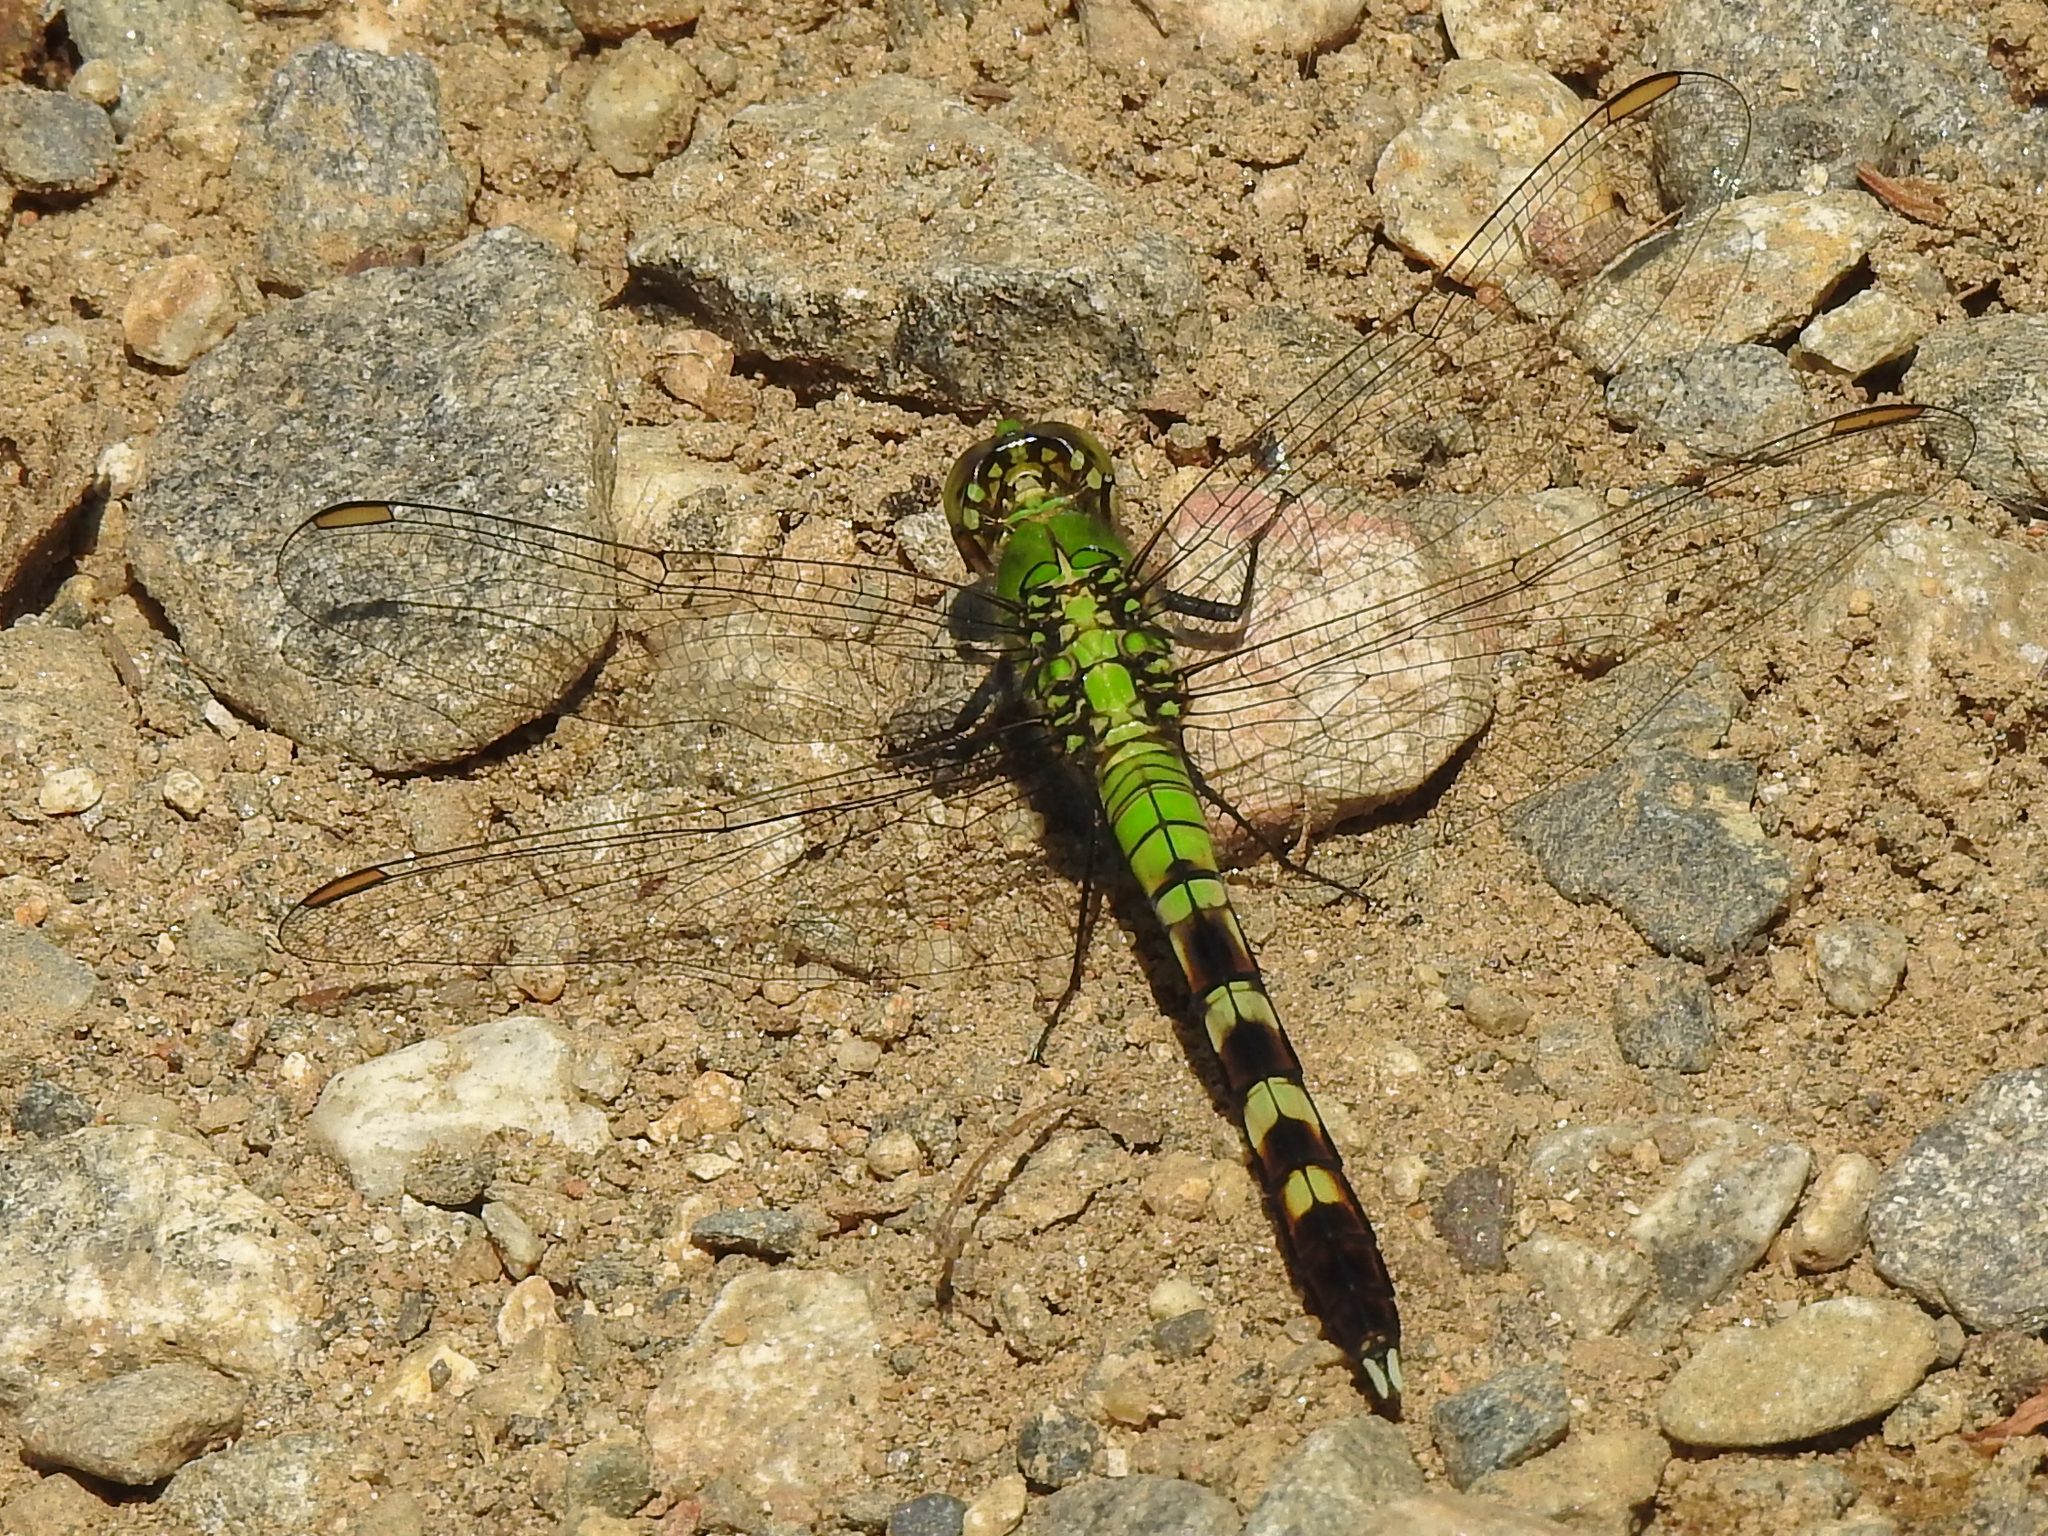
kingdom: Animalia
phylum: Arthropoda
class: Insecta
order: Odonata
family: Libellulidae
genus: Erythemis
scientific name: Erythemis simplicicollis
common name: Eastern pondhawk
